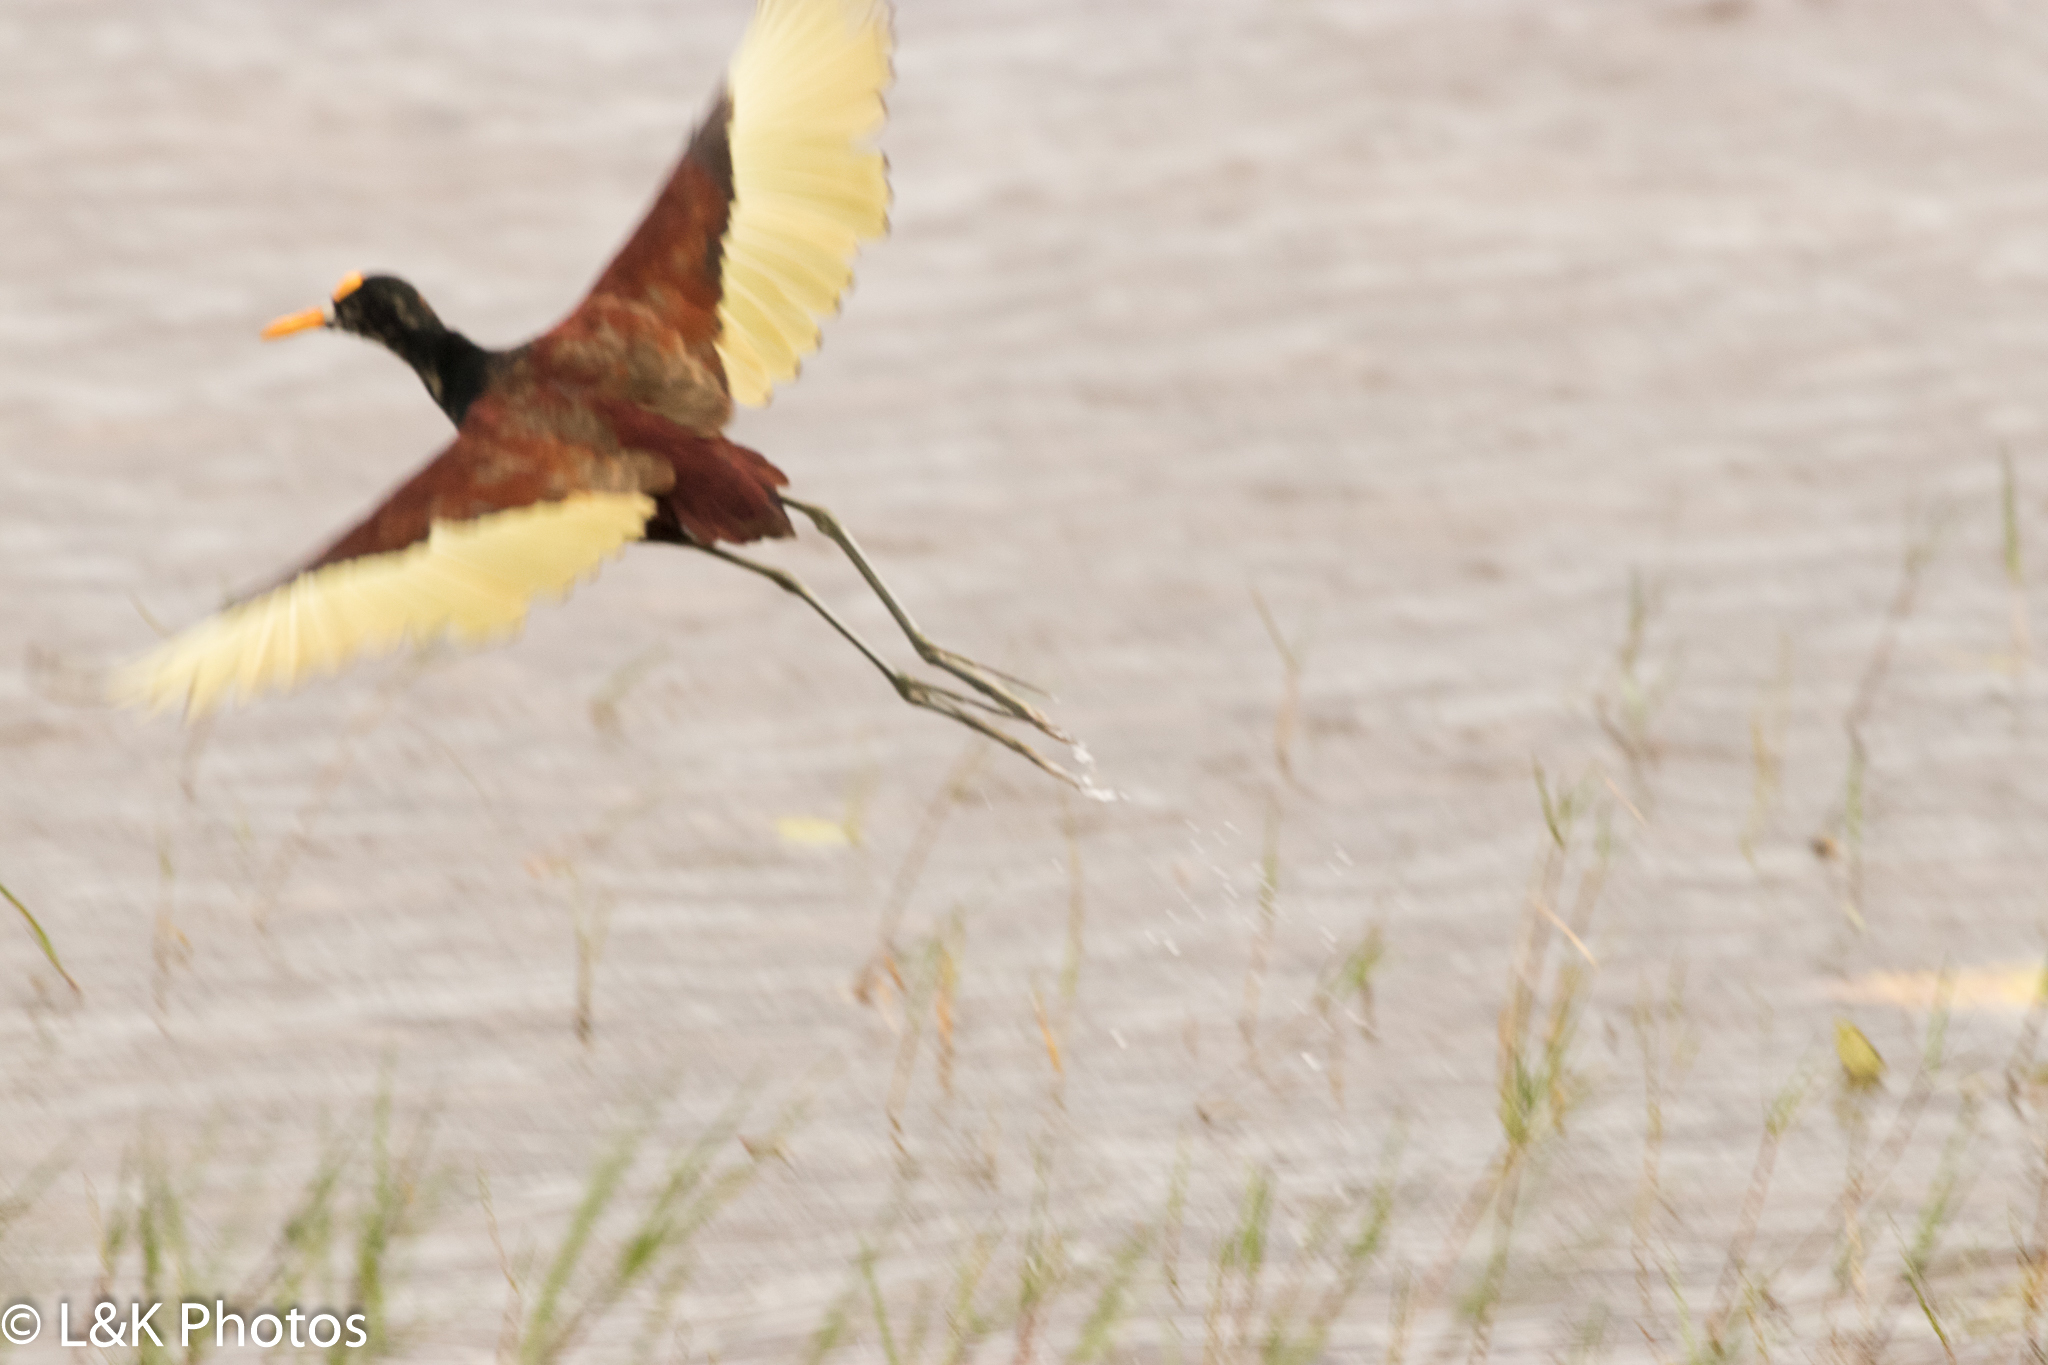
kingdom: Animalia
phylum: Chordata
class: Aves
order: Charadriiformes
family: Jacanidae
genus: Jacana
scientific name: Jacana spinosa
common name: Northern jacana
